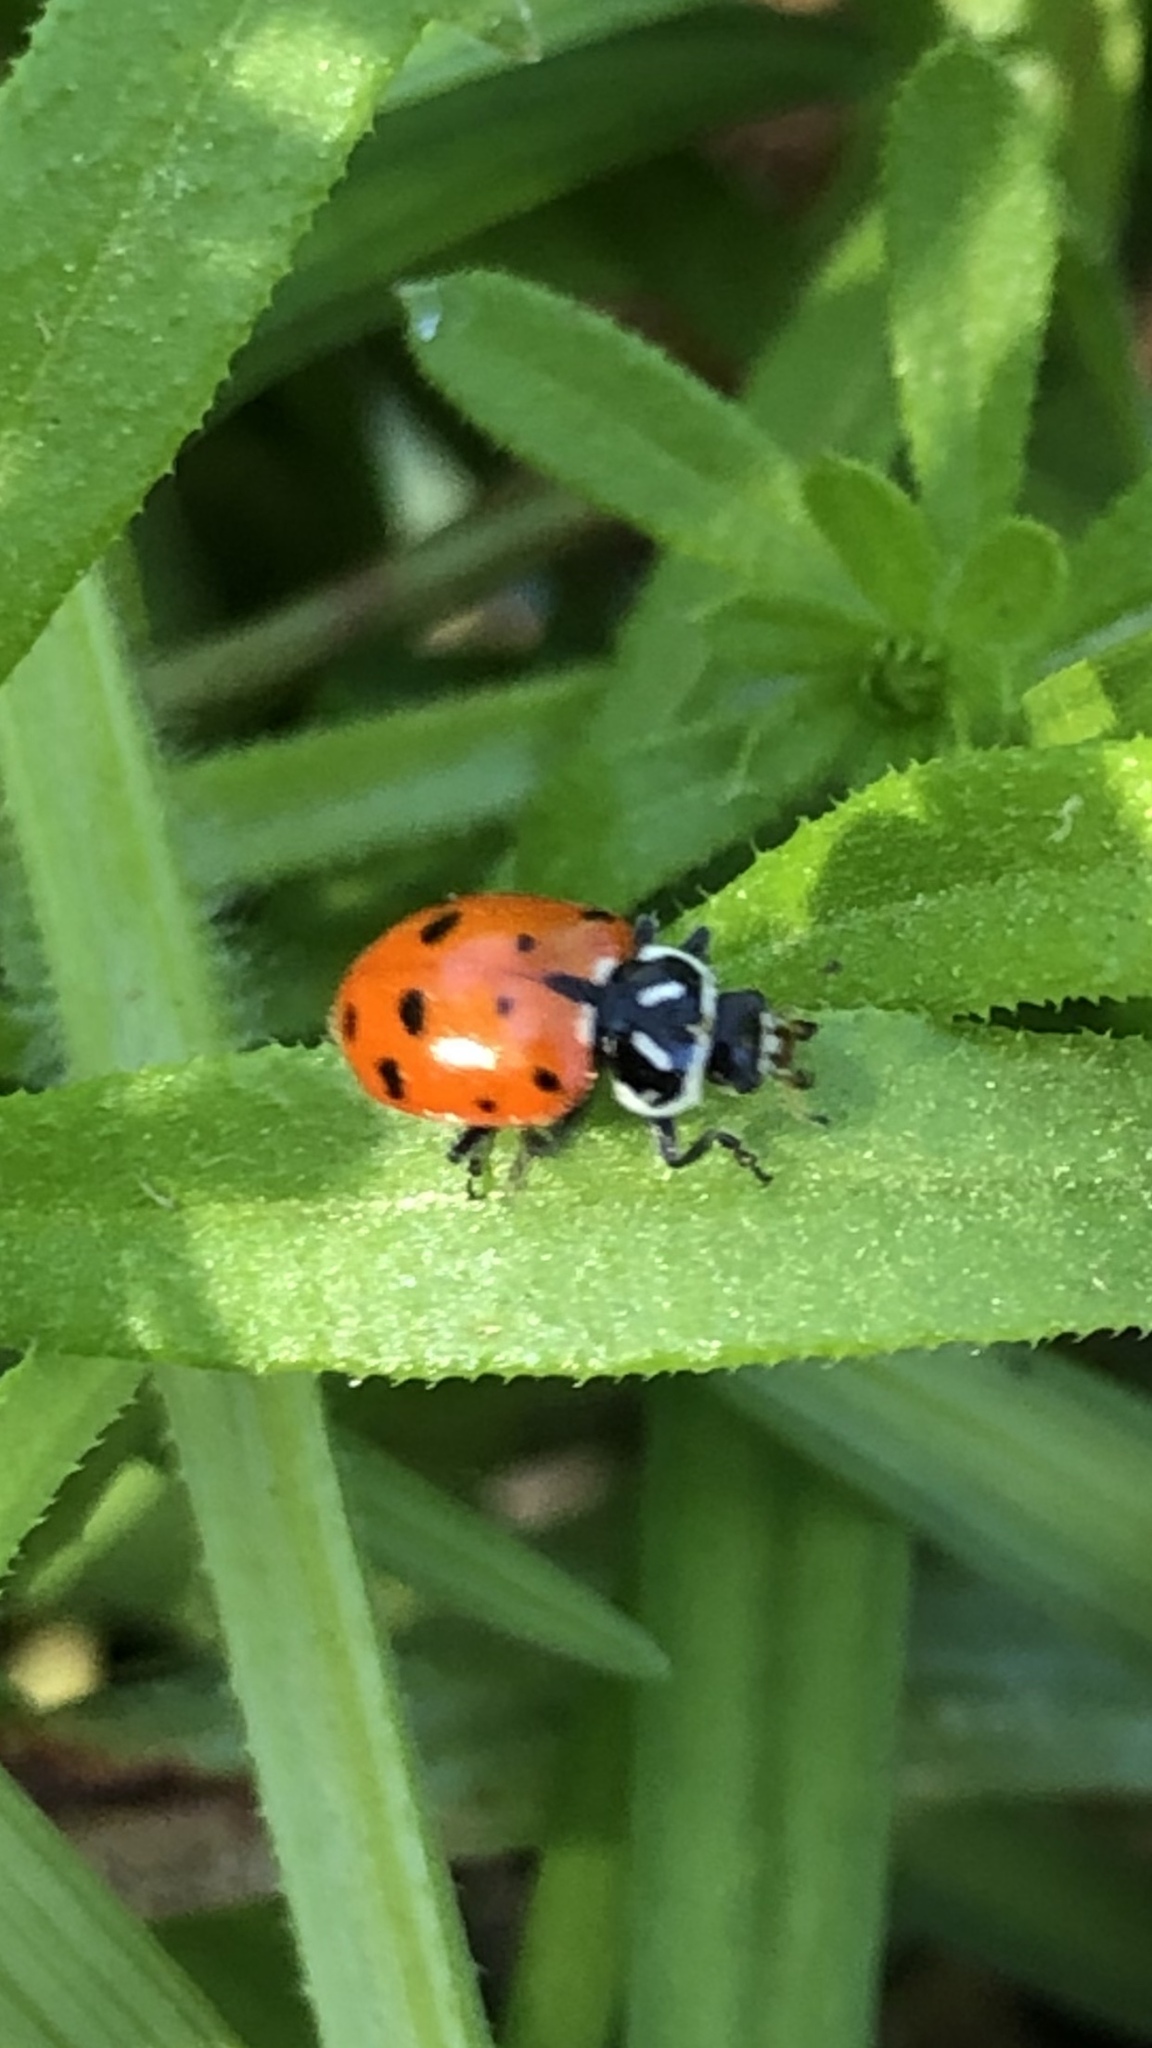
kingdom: Animalia
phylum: Arthropoda
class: Insecta
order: Coleoptera
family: Coccinellidae
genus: Hippodamia
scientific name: Hippodamia convergens
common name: Convergent lady beetle
